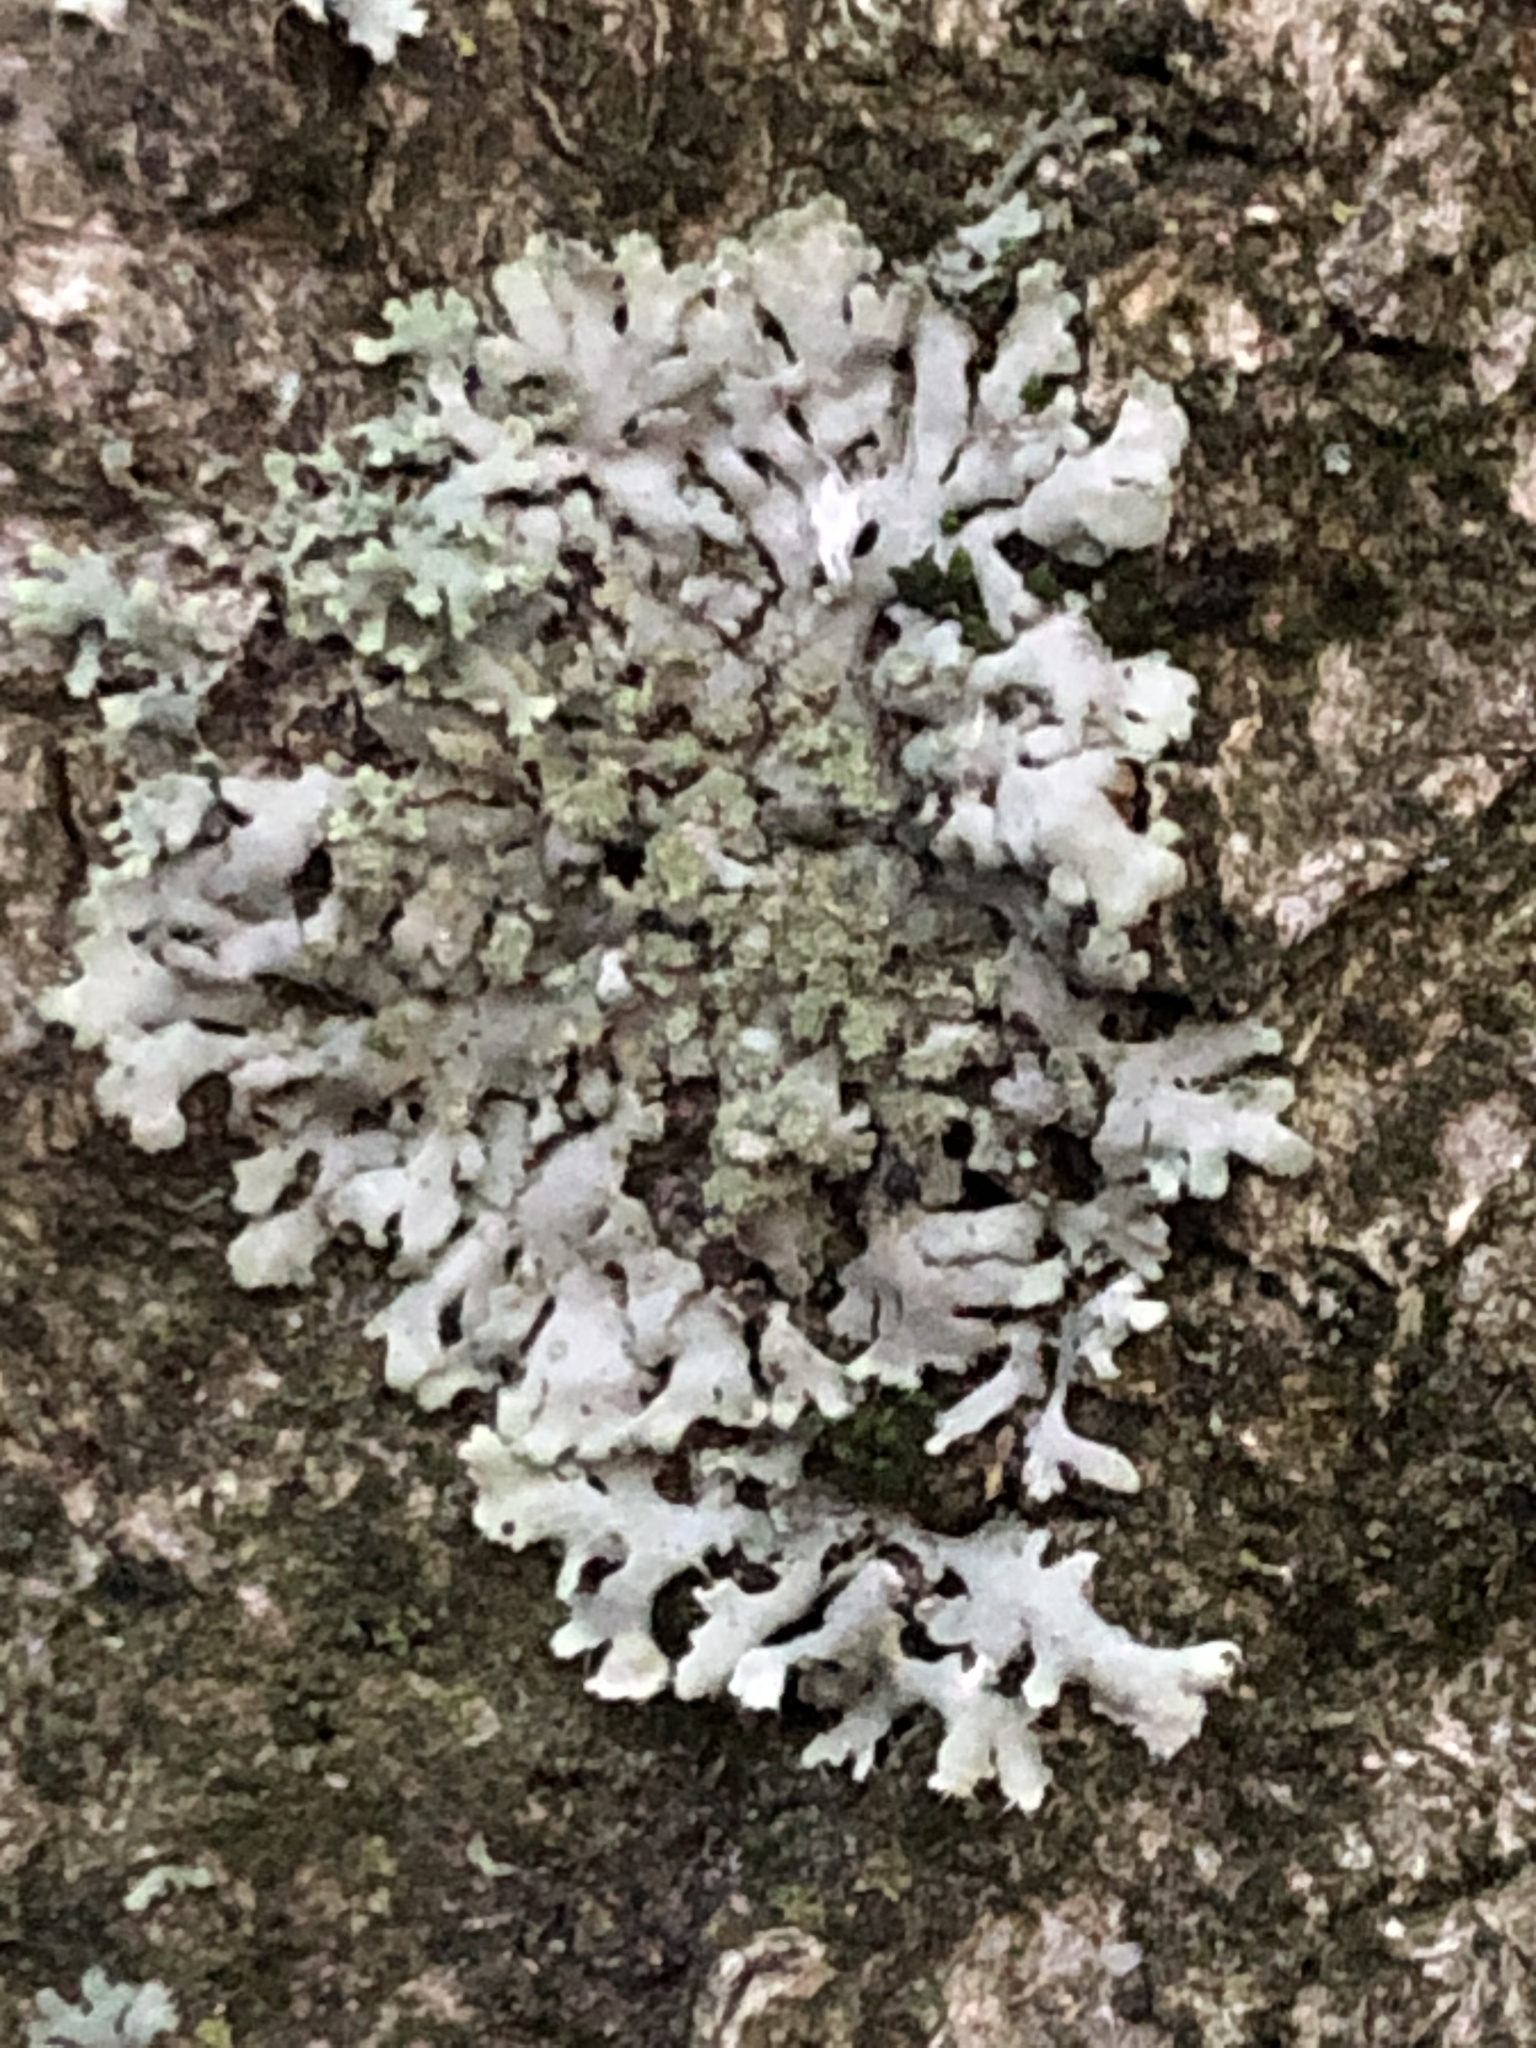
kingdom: Fungi
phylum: Ascomycota
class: Lecanoromycetes
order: Caliciales
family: Physciaceae
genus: Phaeophyscia
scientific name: Phaeophyscia orbicularis
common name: Mealy shadow lichen
